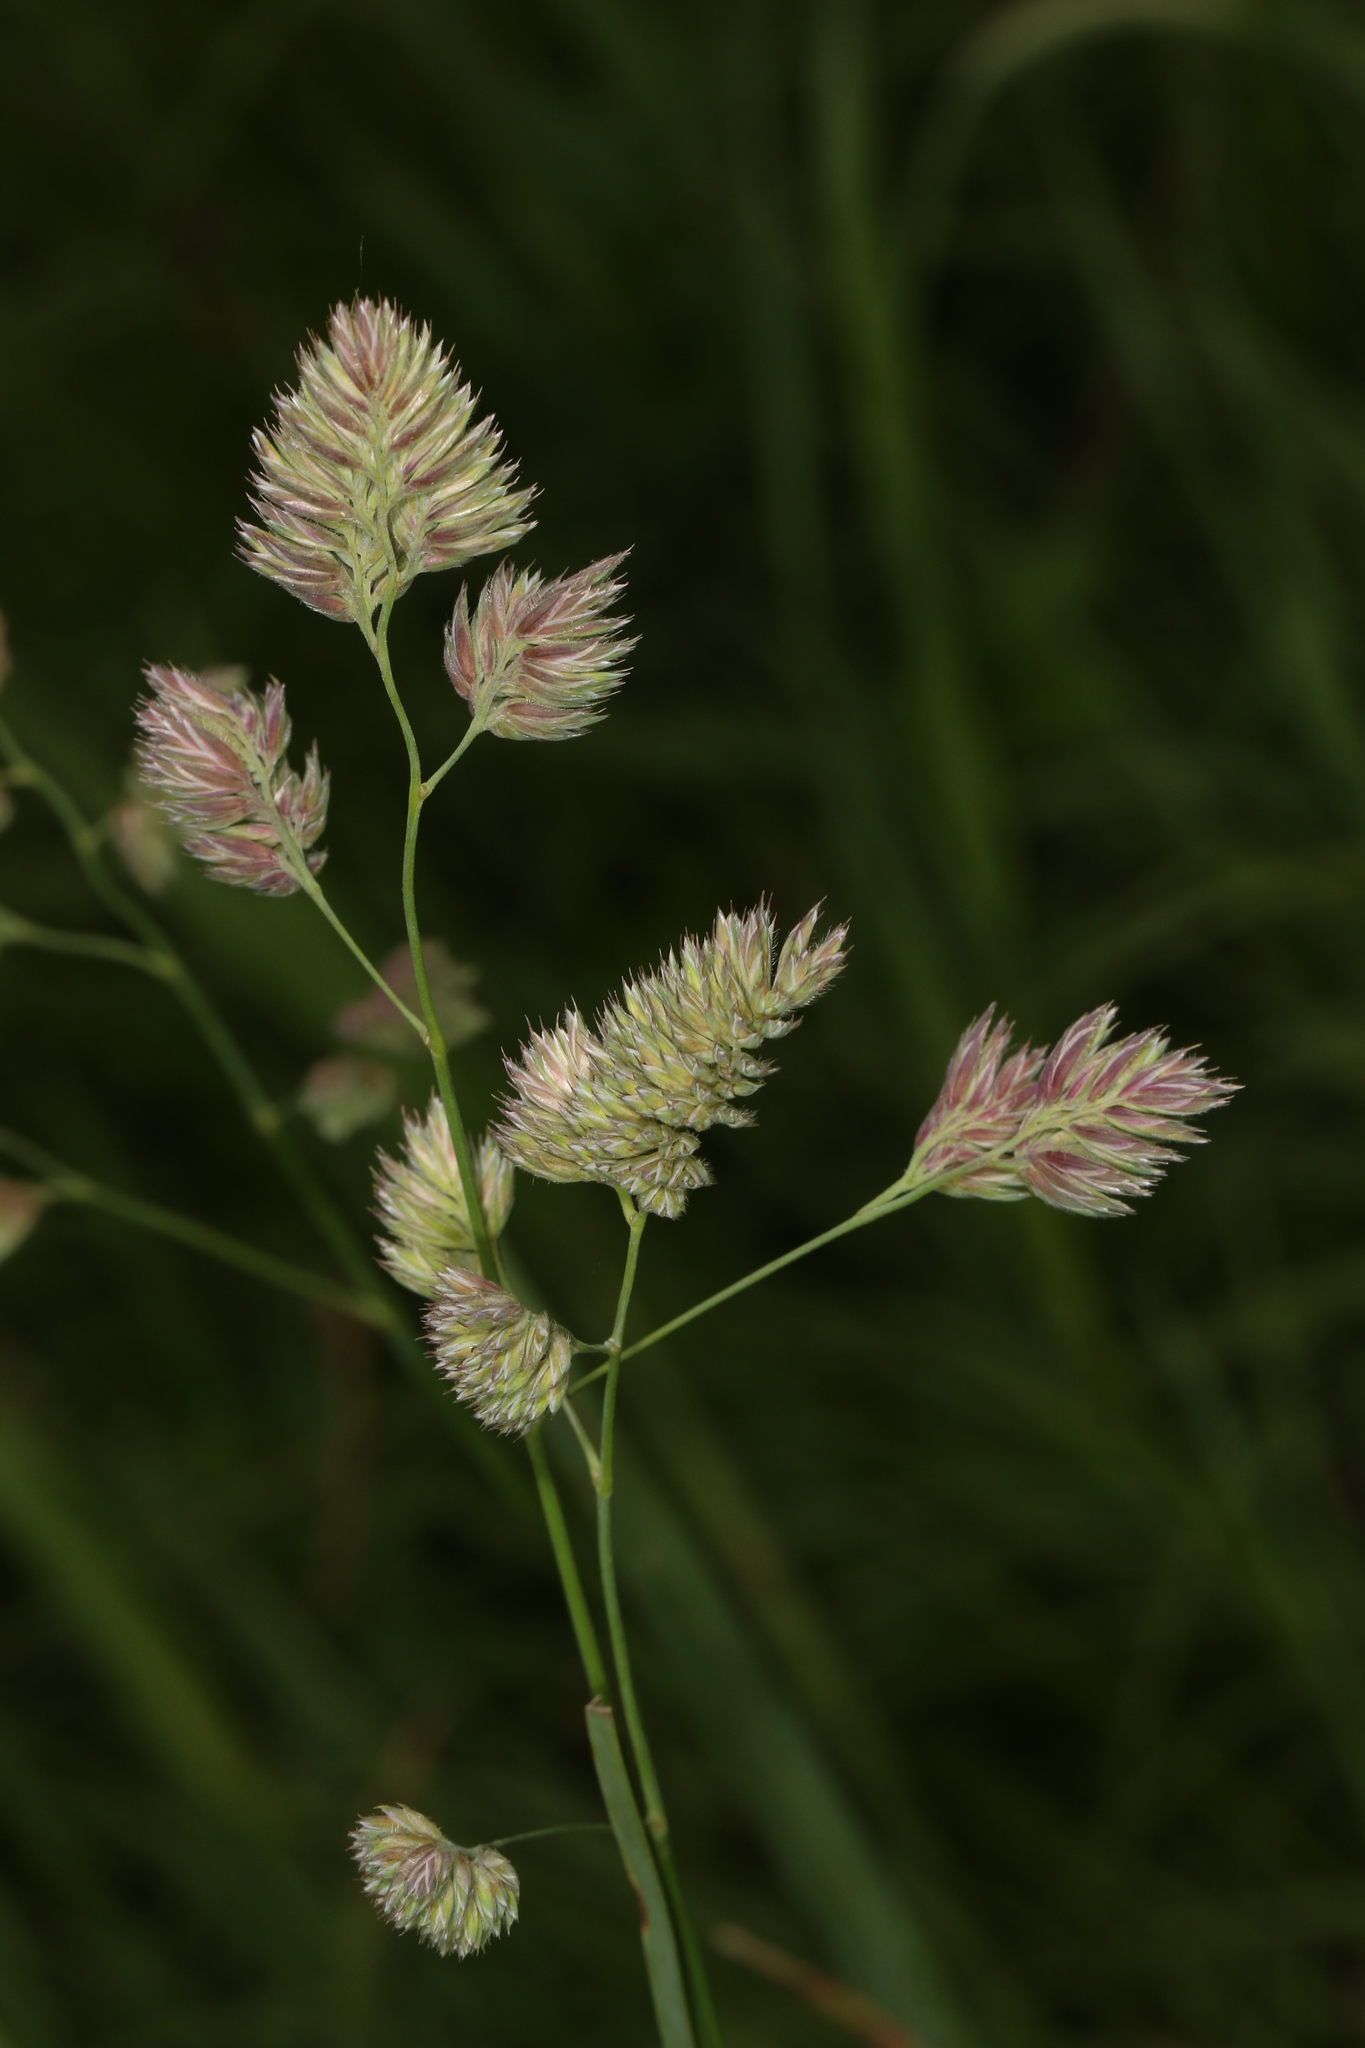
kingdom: Plantae
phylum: Tracheophyta
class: Liliopsida
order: Poales
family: Poaceae
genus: Dactylis
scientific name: Dactylis glomerata
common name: Orchardgrass
